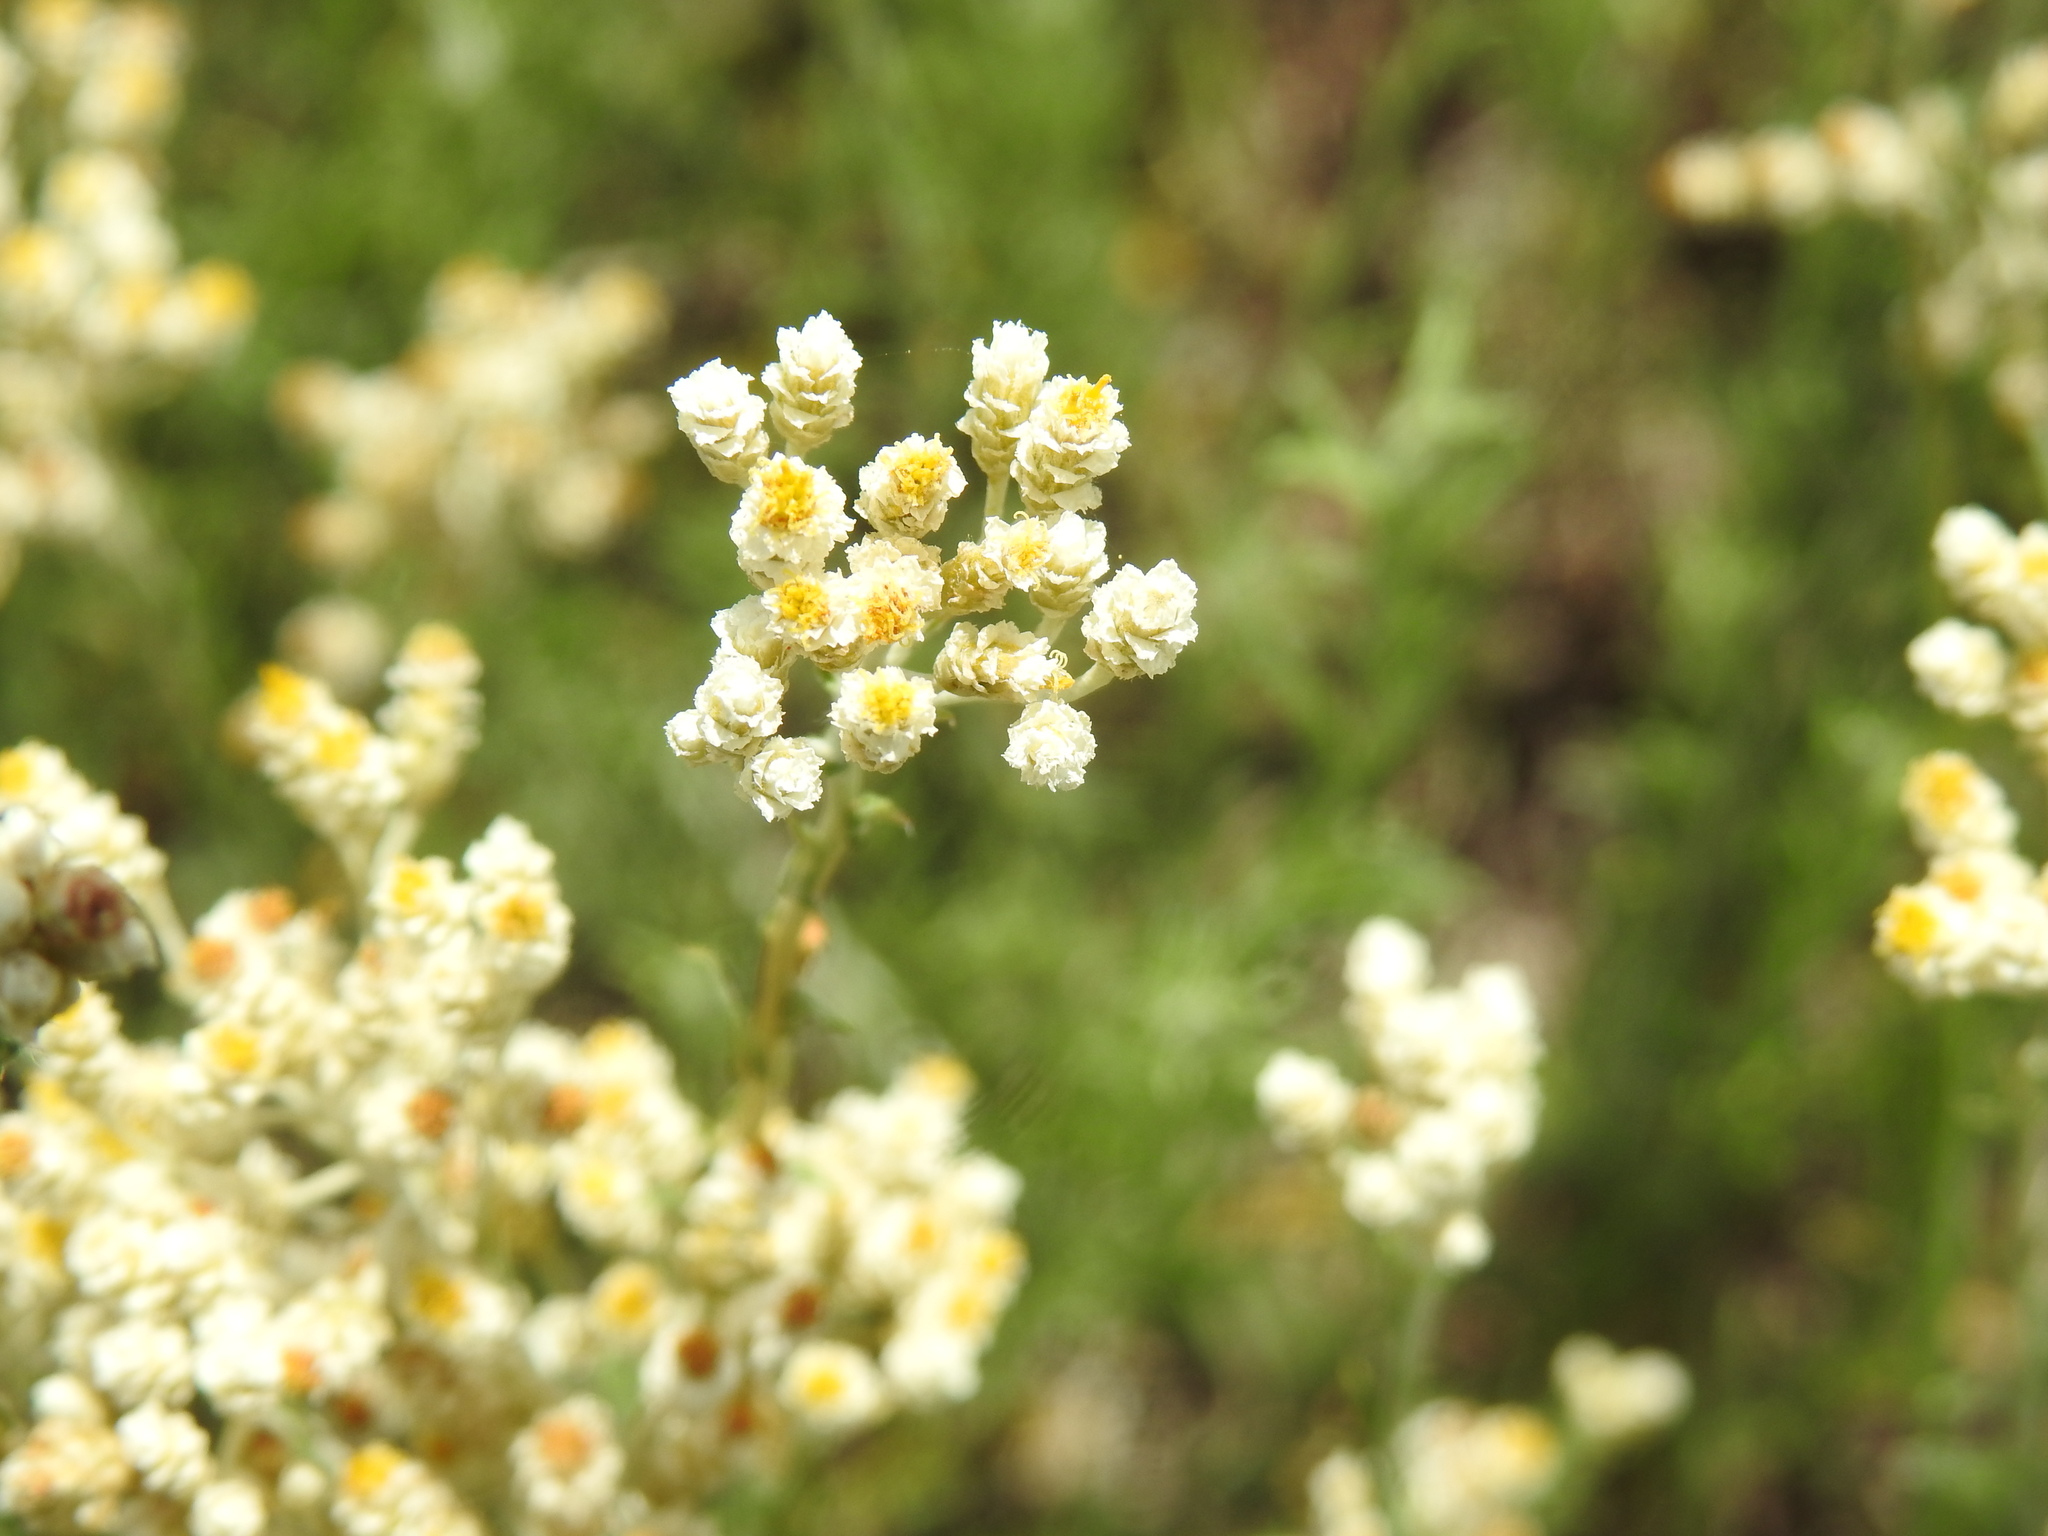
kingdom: Plantae
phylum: Tracheophyta
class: Magnoliopsida
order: Asterales
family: Asteraceae
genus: Helichrysum
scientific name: Helichrysum rugulosum
